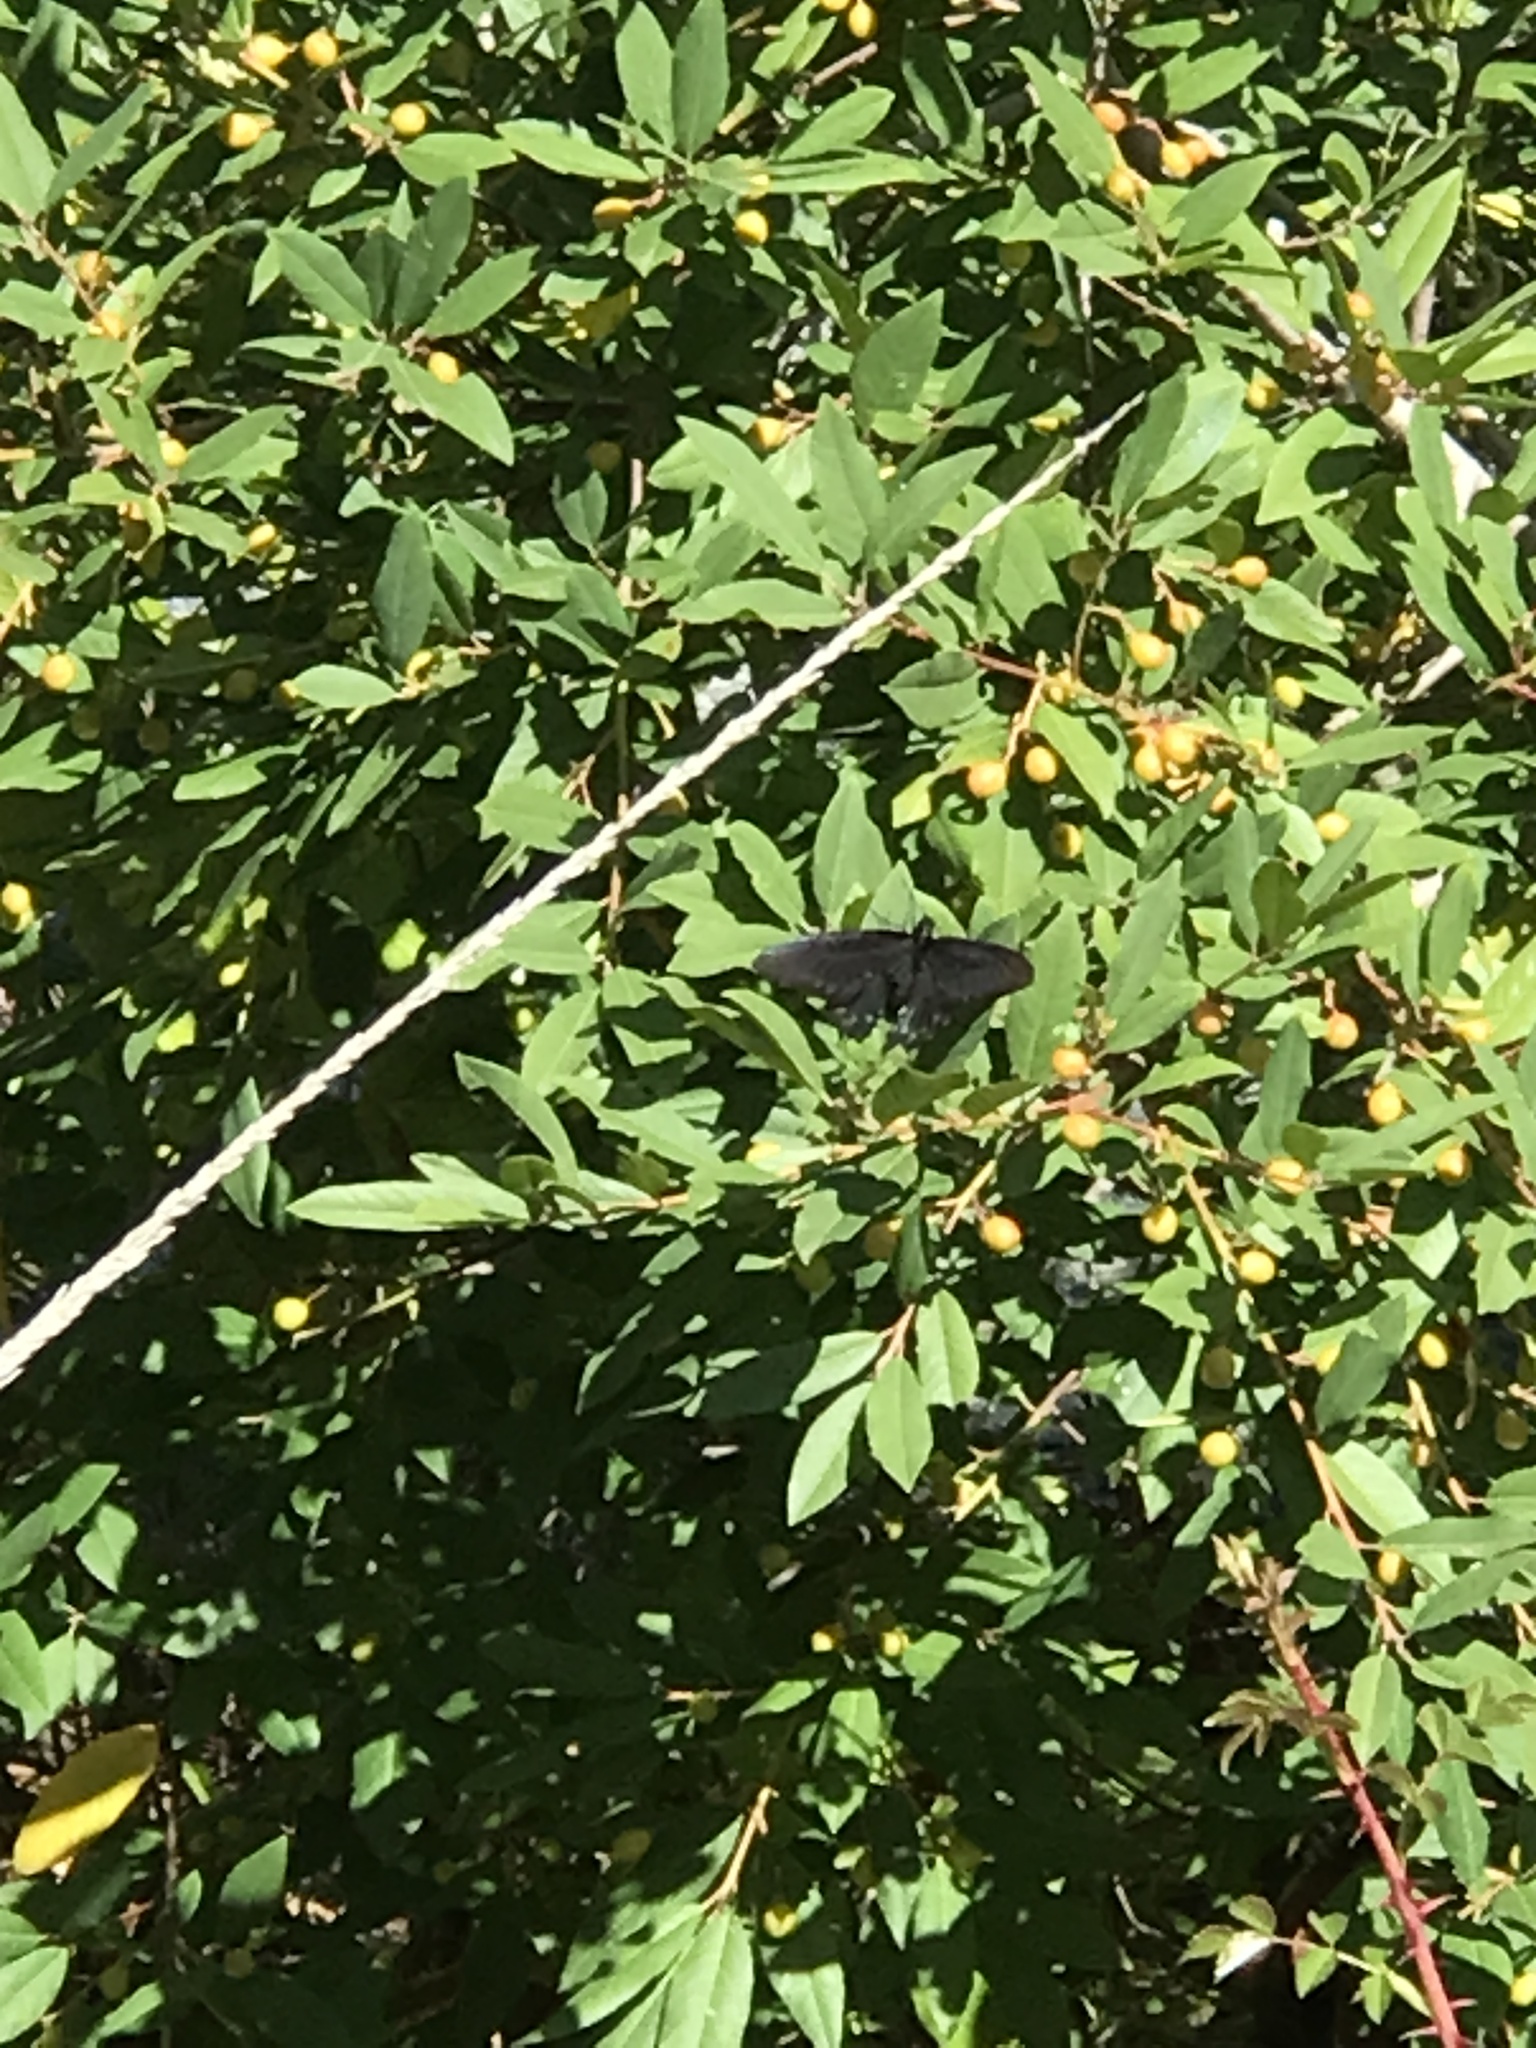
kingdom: Animalia
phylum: Arthropoda
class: Insecta
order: Lepidoptera
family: Papilionidae
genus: Battus
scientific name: Battus philenor
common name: Pipevine swallowtail
